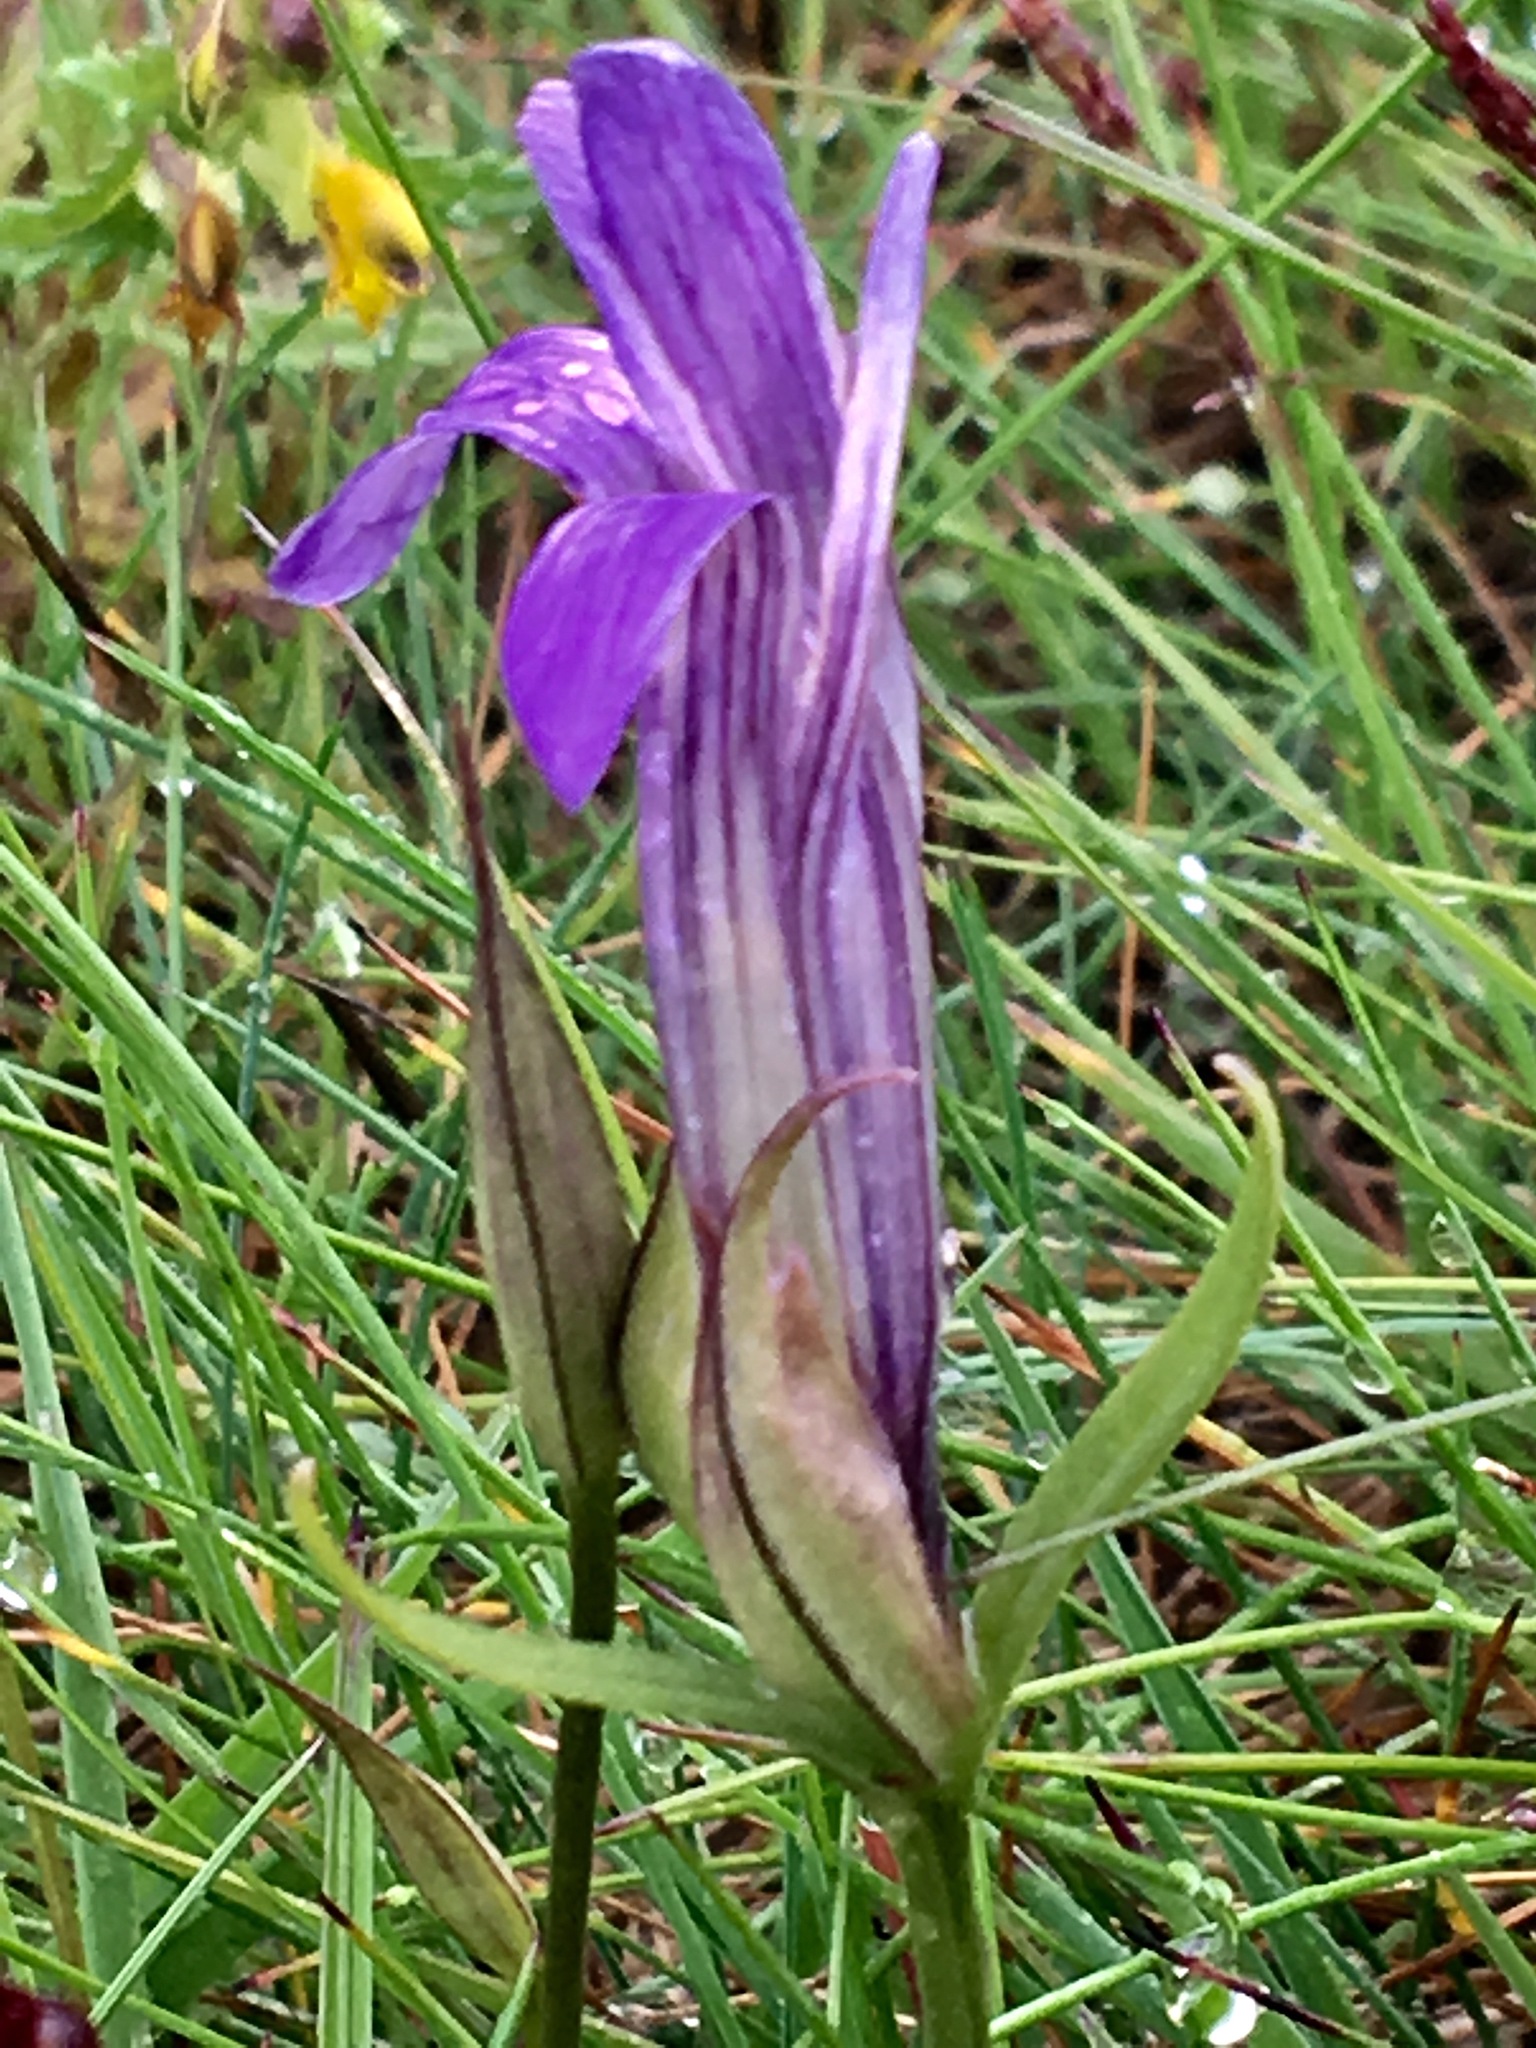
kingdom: Plantae
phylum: Tracheophyta
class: Magnoliopsida
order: Gentianales
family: Gentianaceae
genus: Gentianopsis
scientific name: Gentianopsis detonsa
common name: Fringed-gentian
